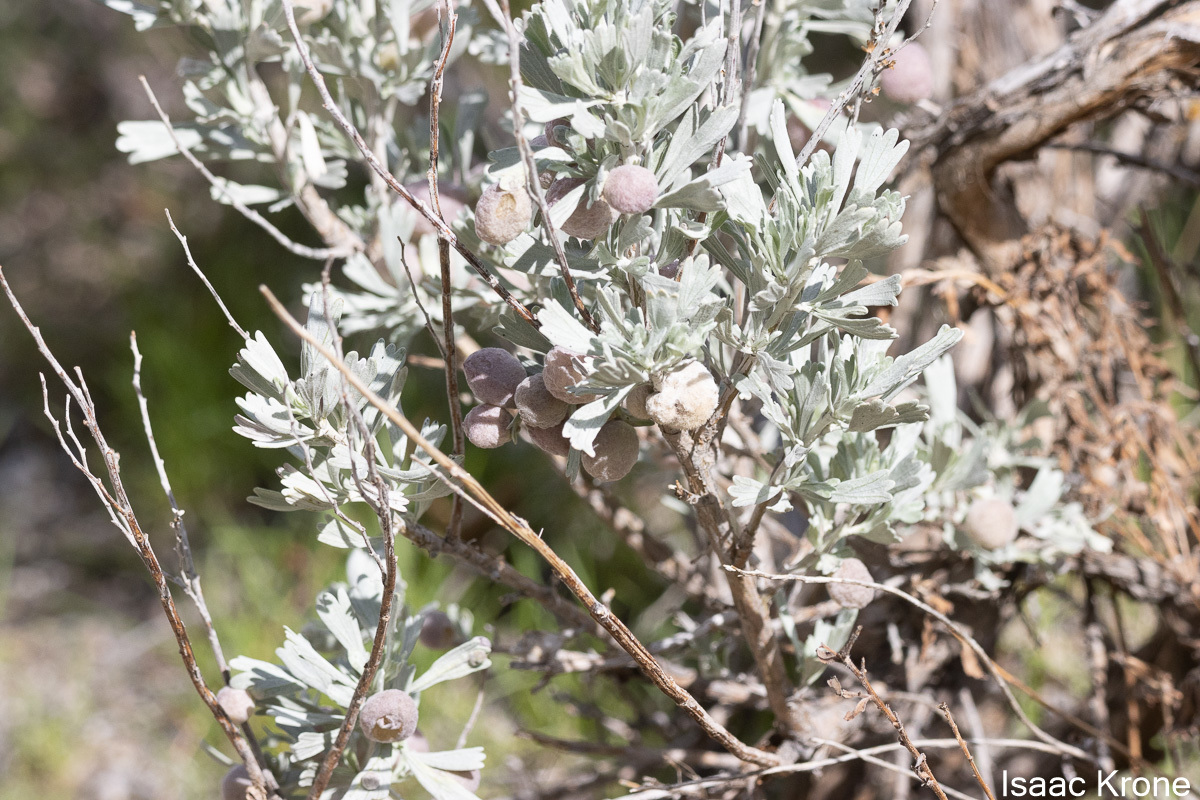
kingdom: Animalia
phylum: Arthropoda
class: Insecta
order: Diptera
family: Cecidomyiidae
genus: Rhopalomyia
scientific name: Rhopalomyia pomum
